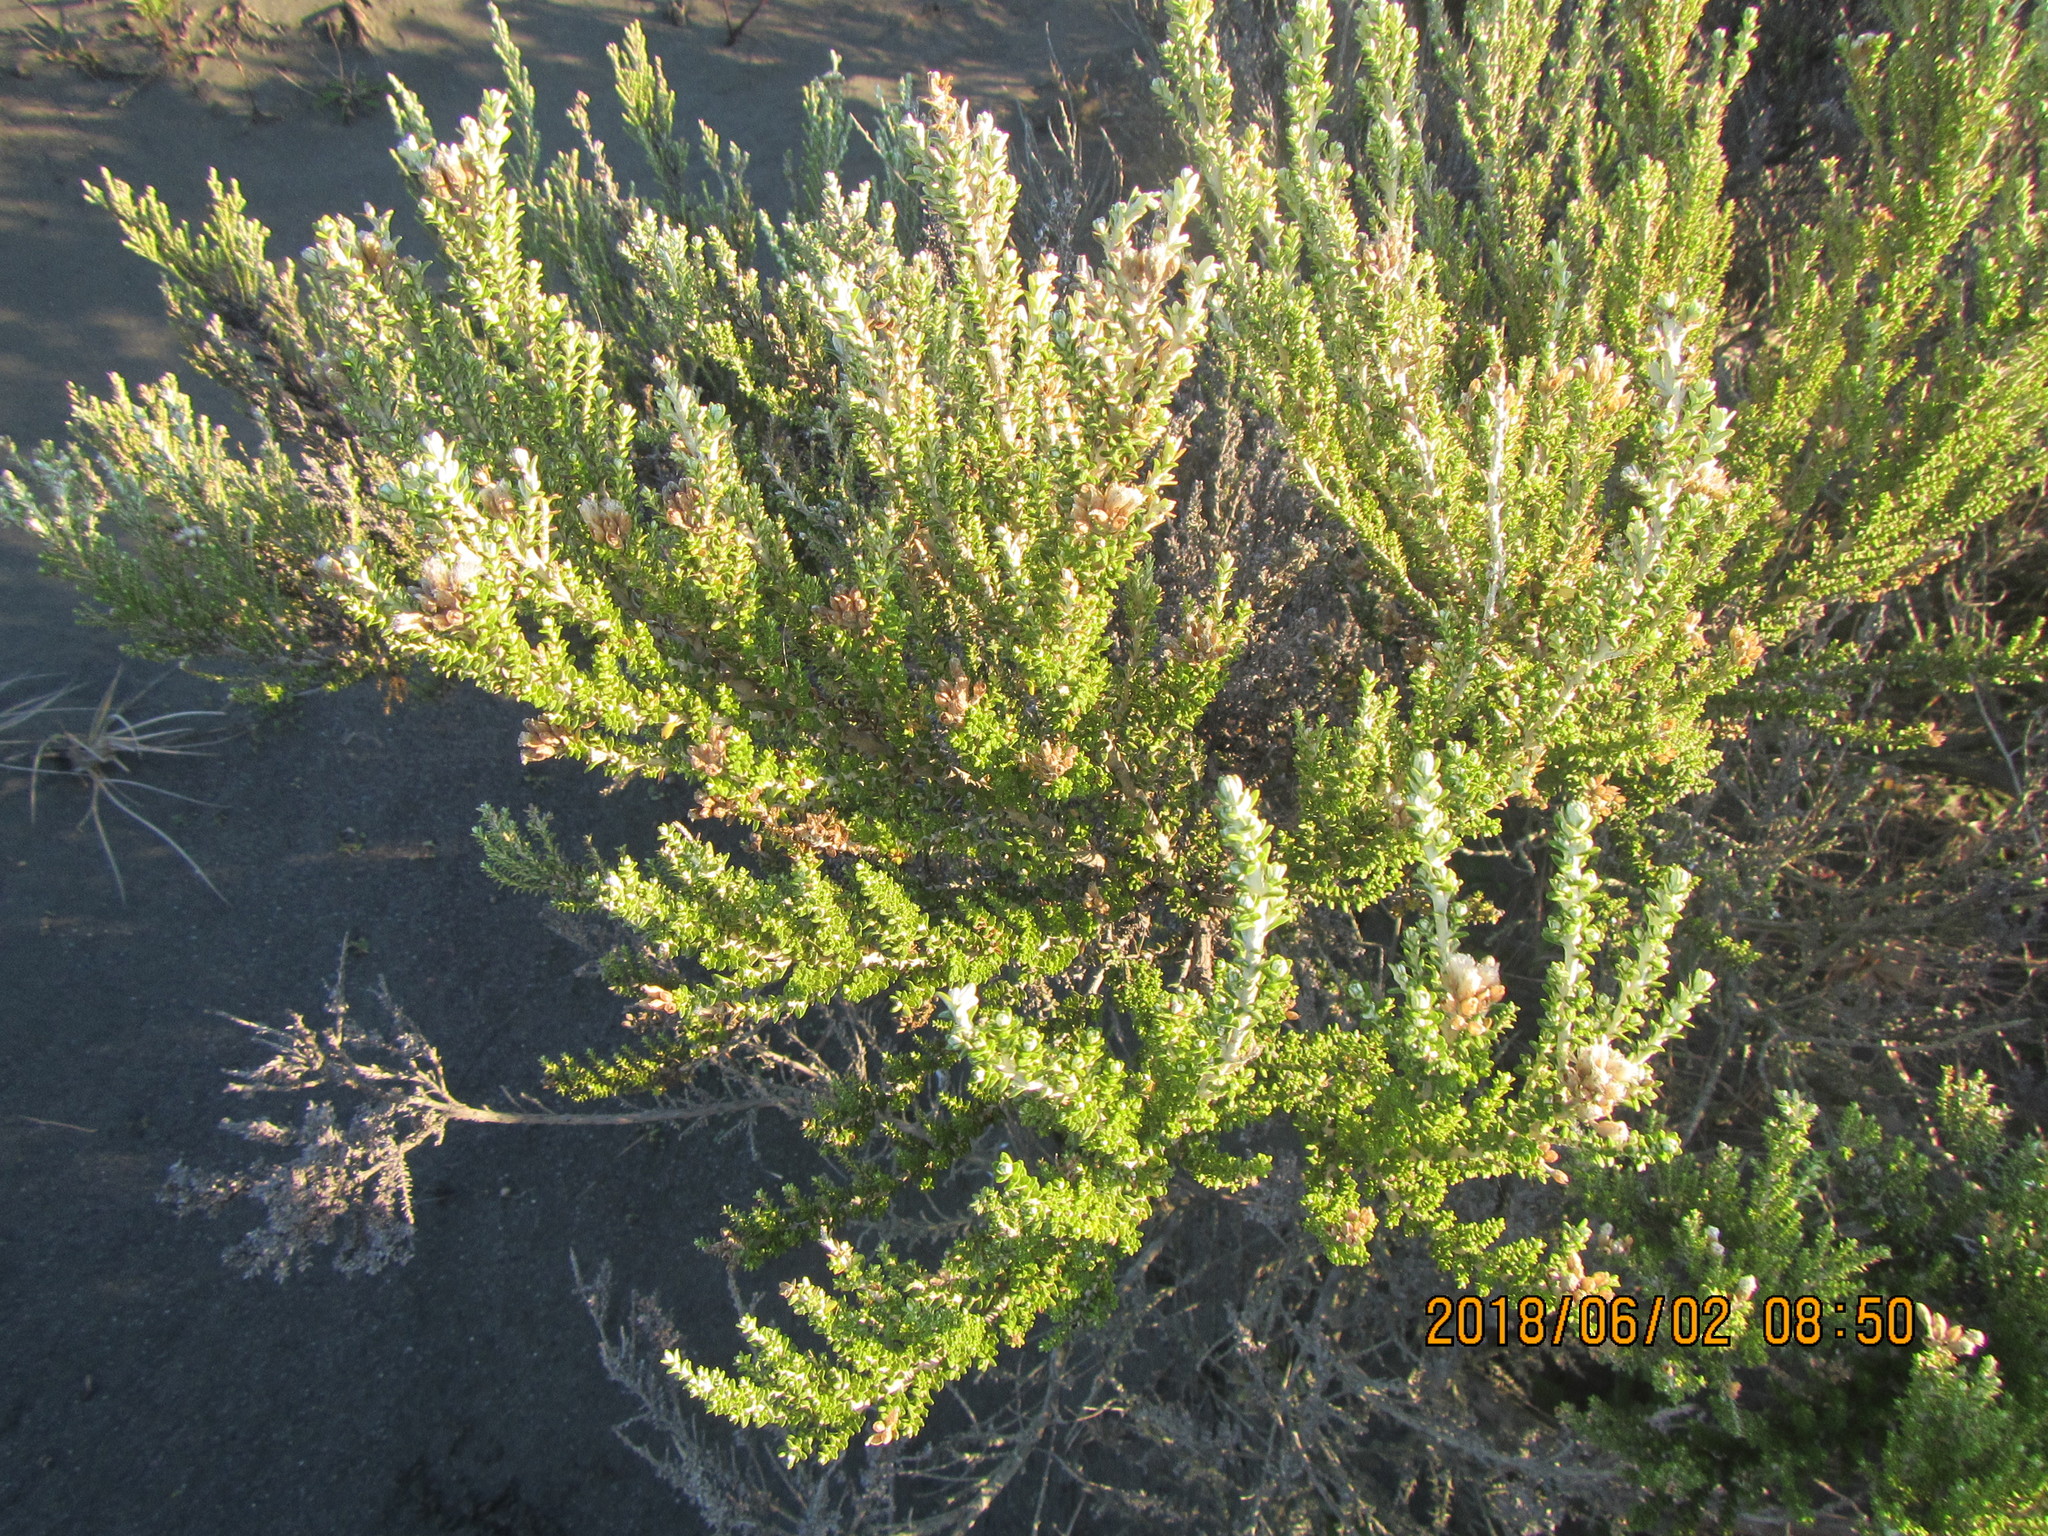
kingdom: Plantae
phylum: Tracheophyta
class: Magnoliopsida
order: Asterales
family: Asteraceae
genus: Ozothamnus
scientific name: Ozothamnus leptophyllus
